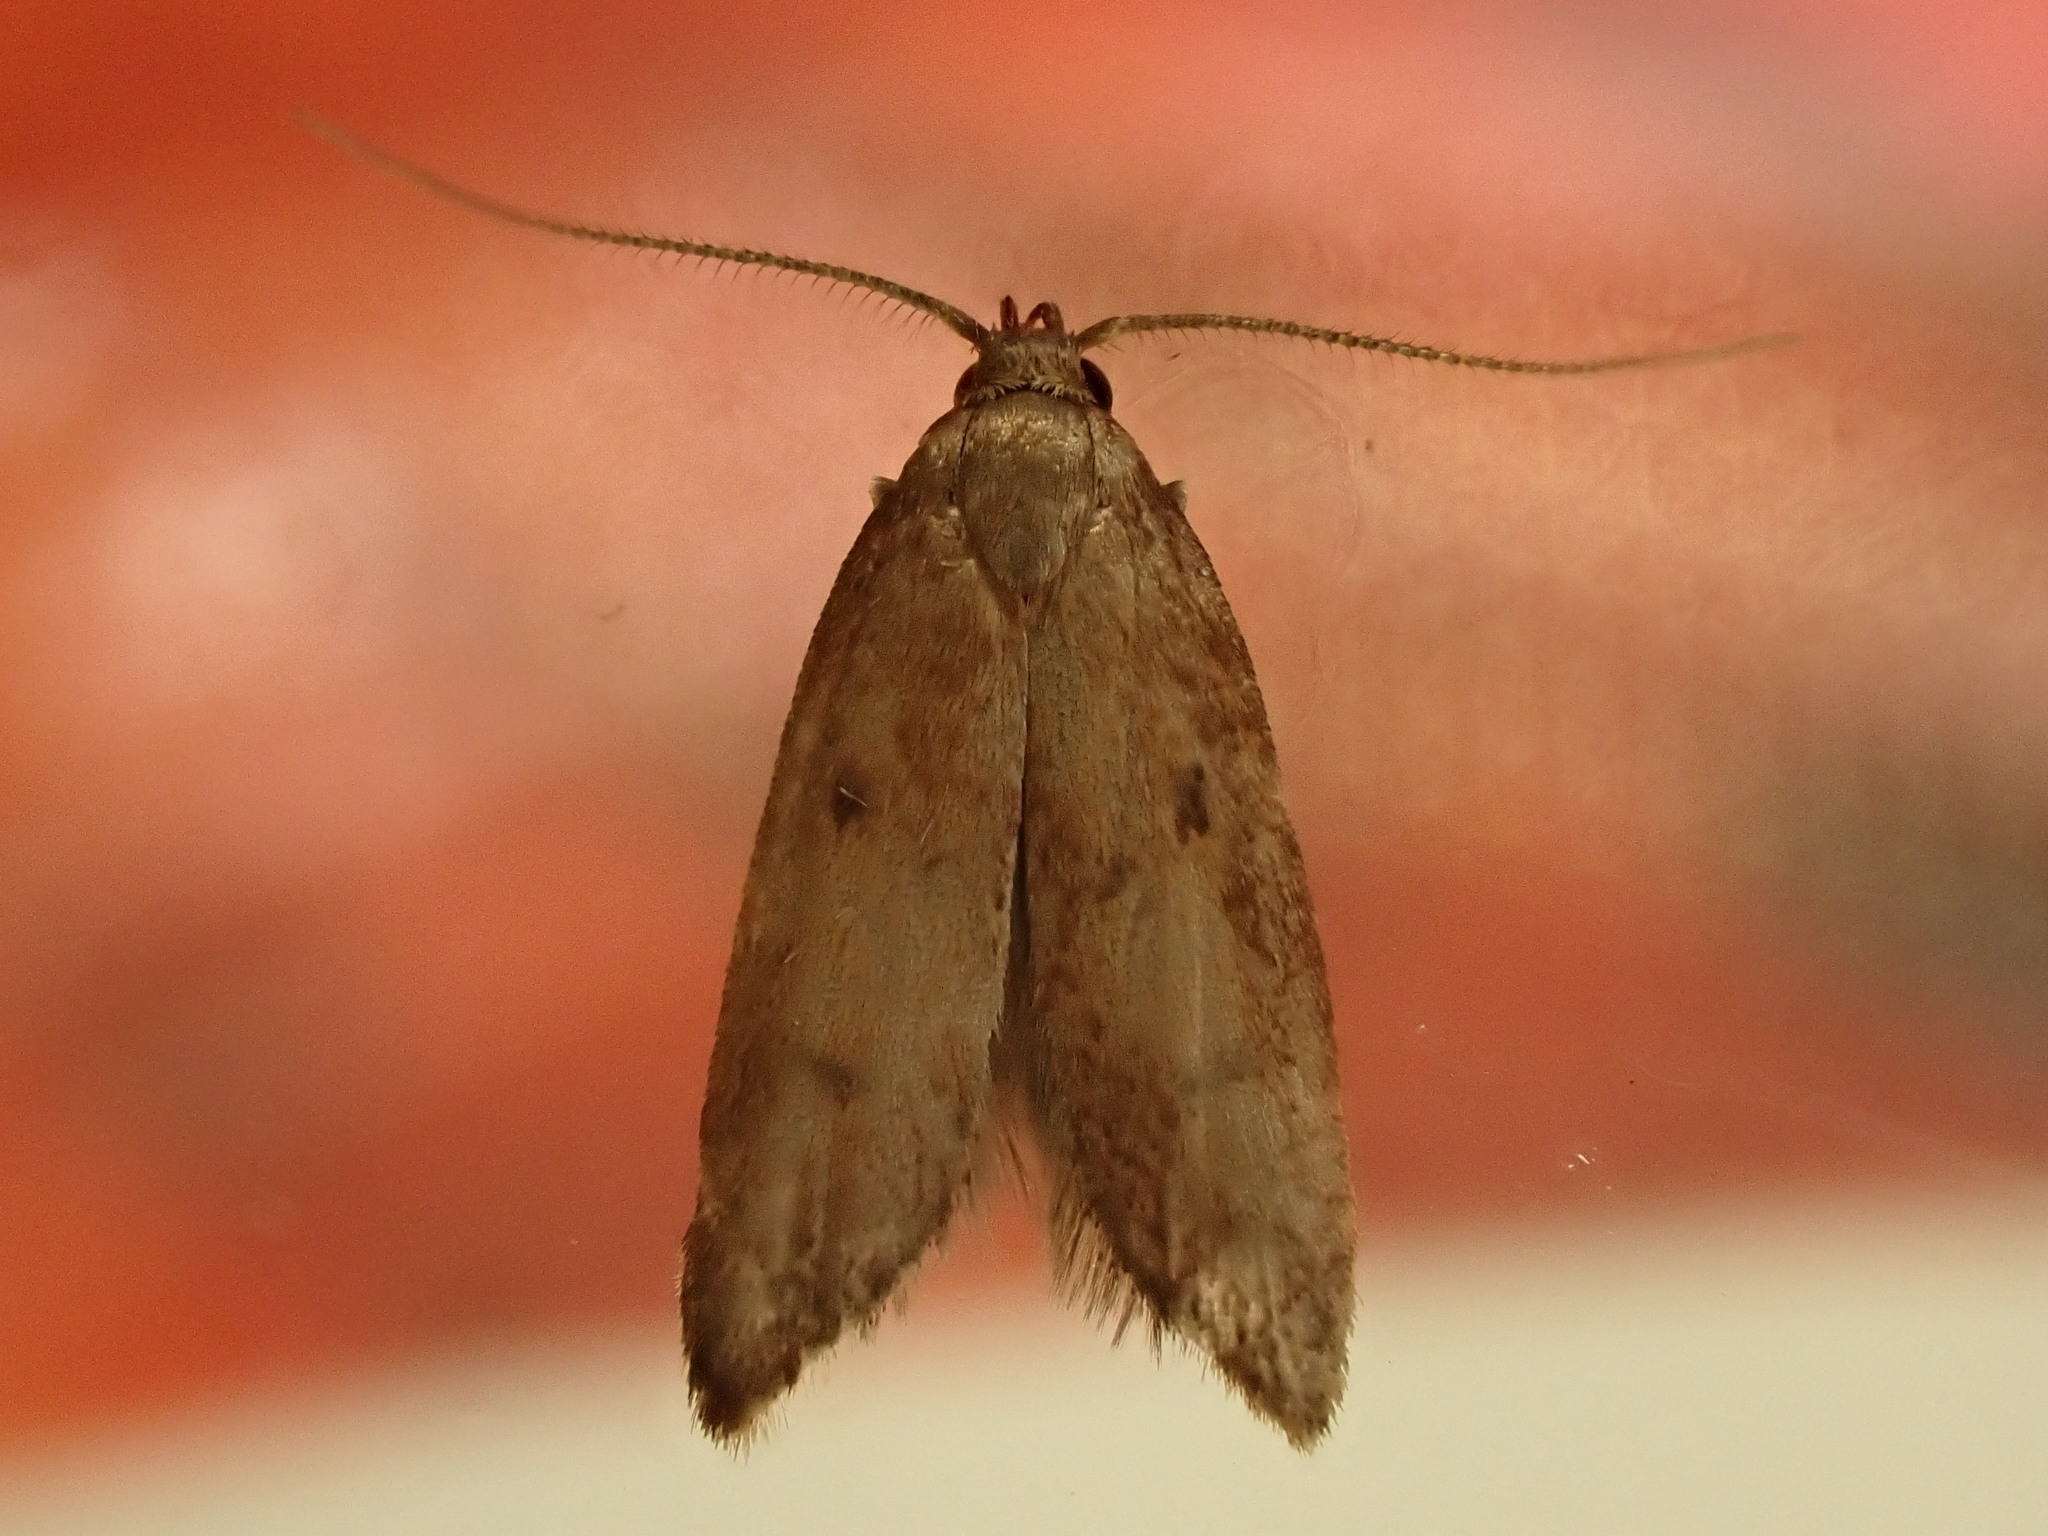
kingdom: Animalia
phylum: Arthropoda
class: Insecta
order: Lepidoptera
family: Oecophoridae
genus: Tachystola
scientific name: Tachystola acroxantha
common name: Ruddy streak
